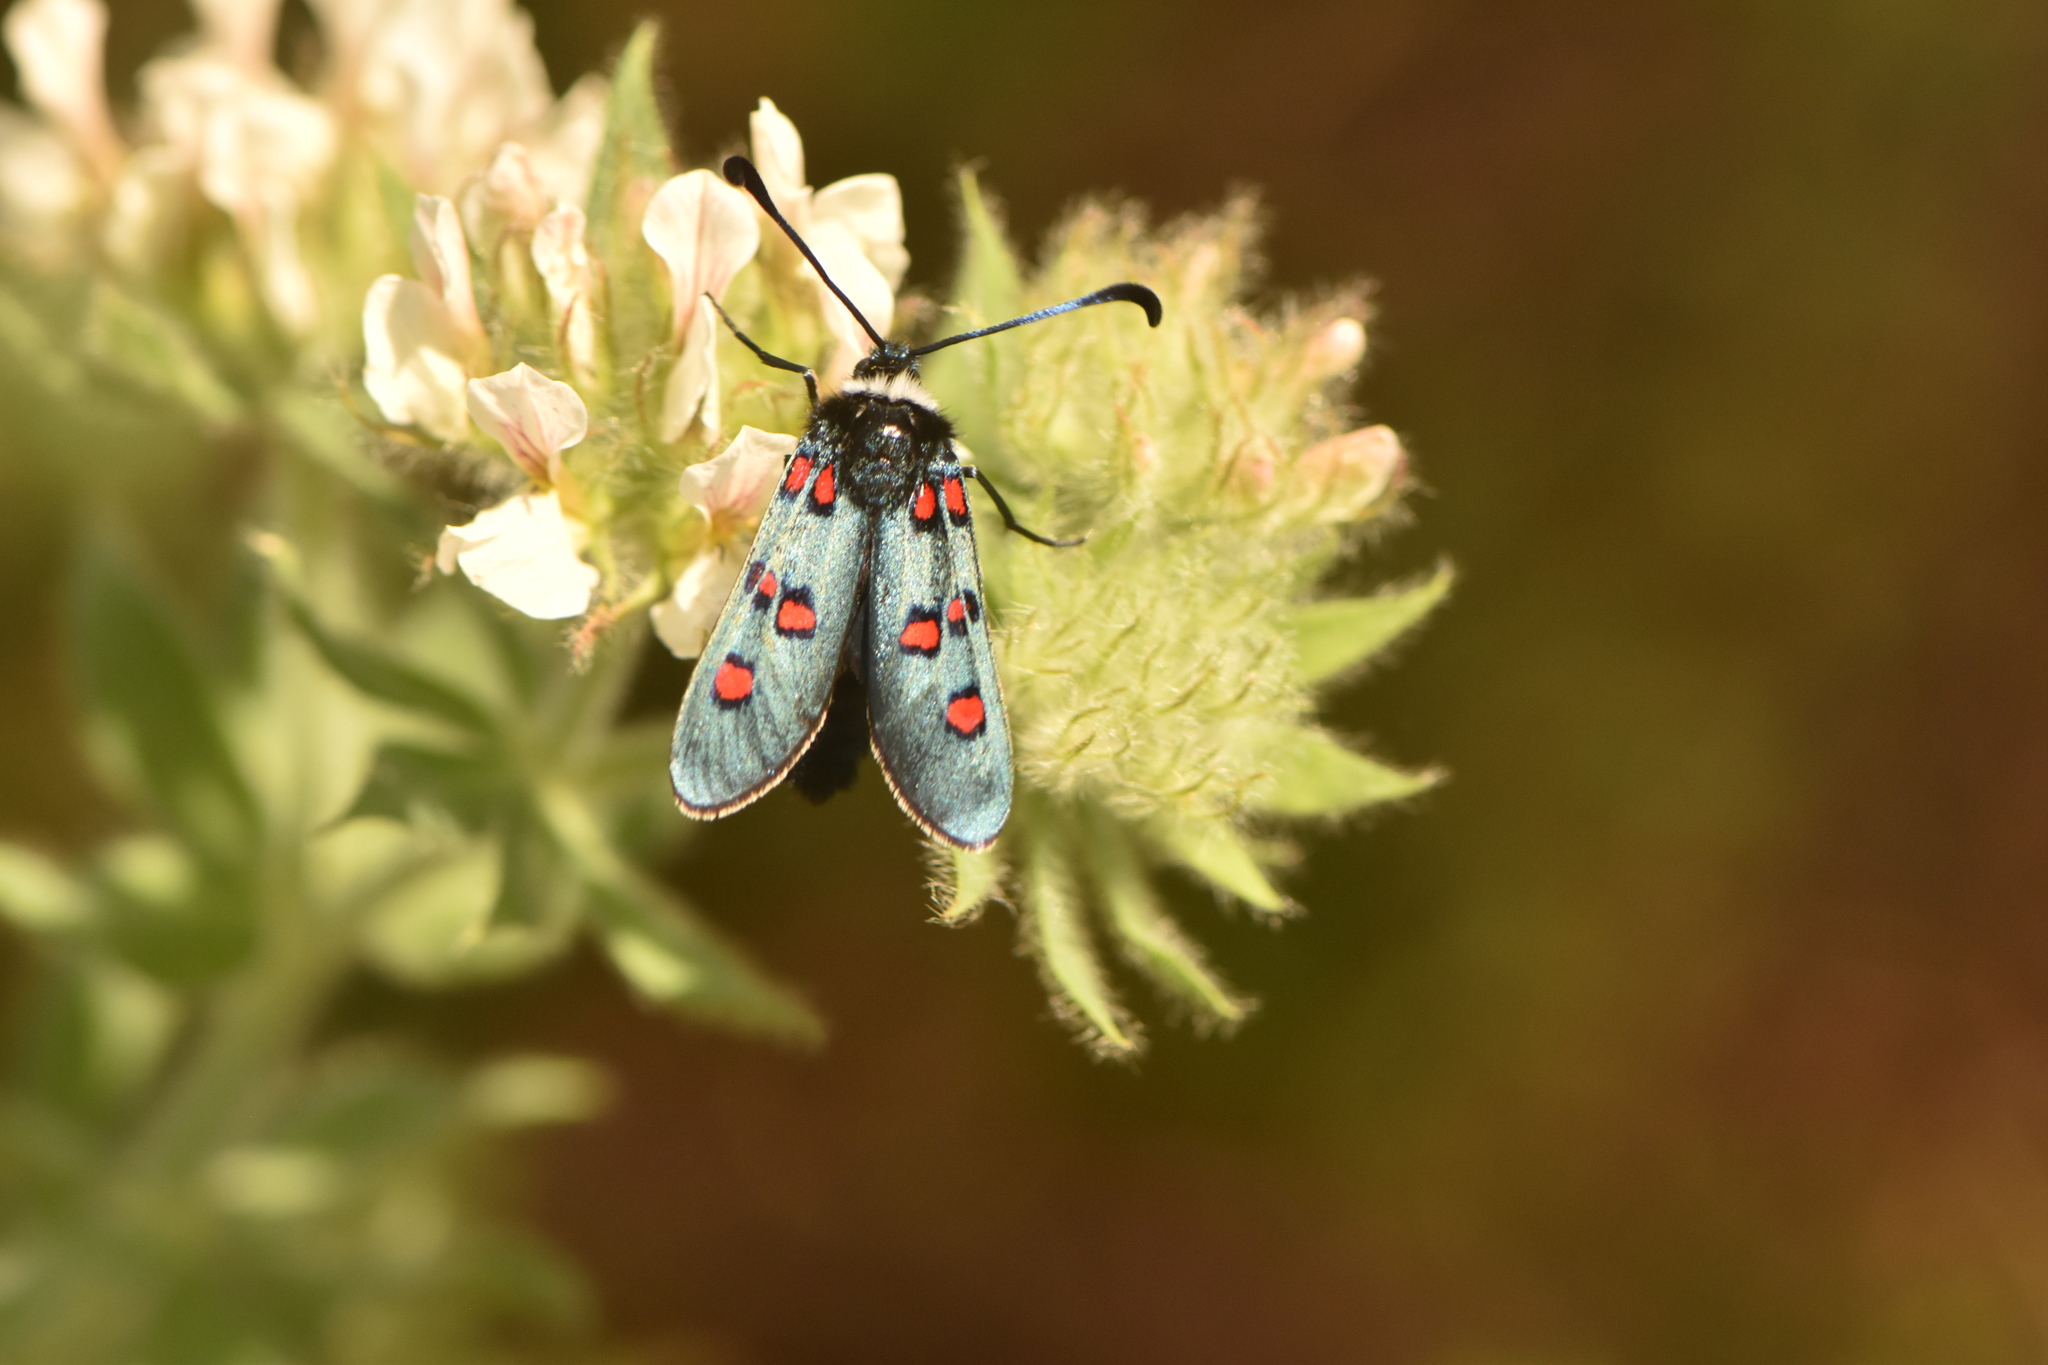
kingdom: Animalia
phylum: Arthropoda
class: Insecta
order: Lepidoptera
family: Zygaenidae
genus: Zygaena
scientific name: Zygaena lavandulae
